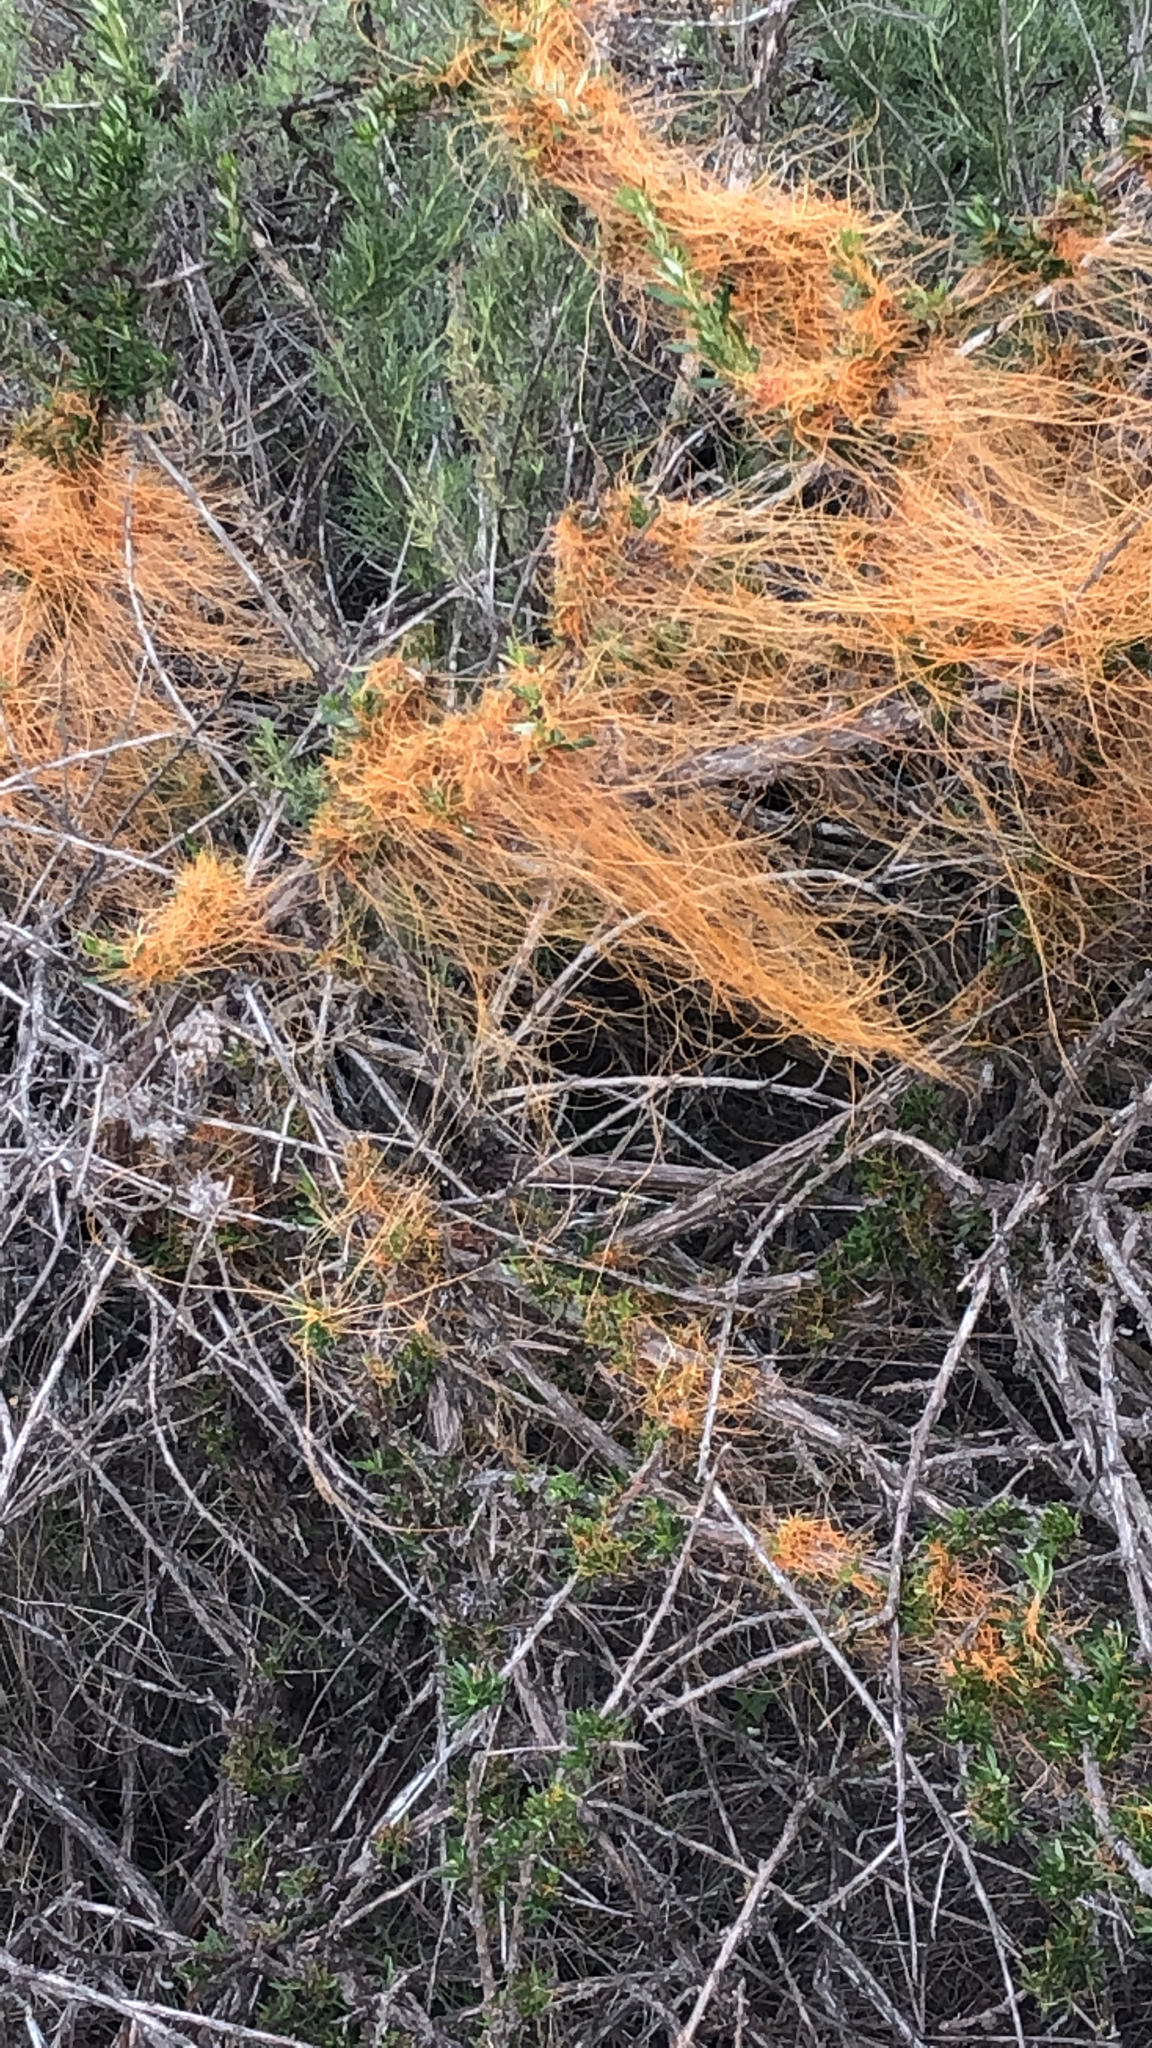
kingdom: Plantae
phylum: Tracheophyta
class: Magnoliopsida
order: Solanales
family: Convolvulaceae
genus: Cuscuta
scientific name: Cuscuta californica
